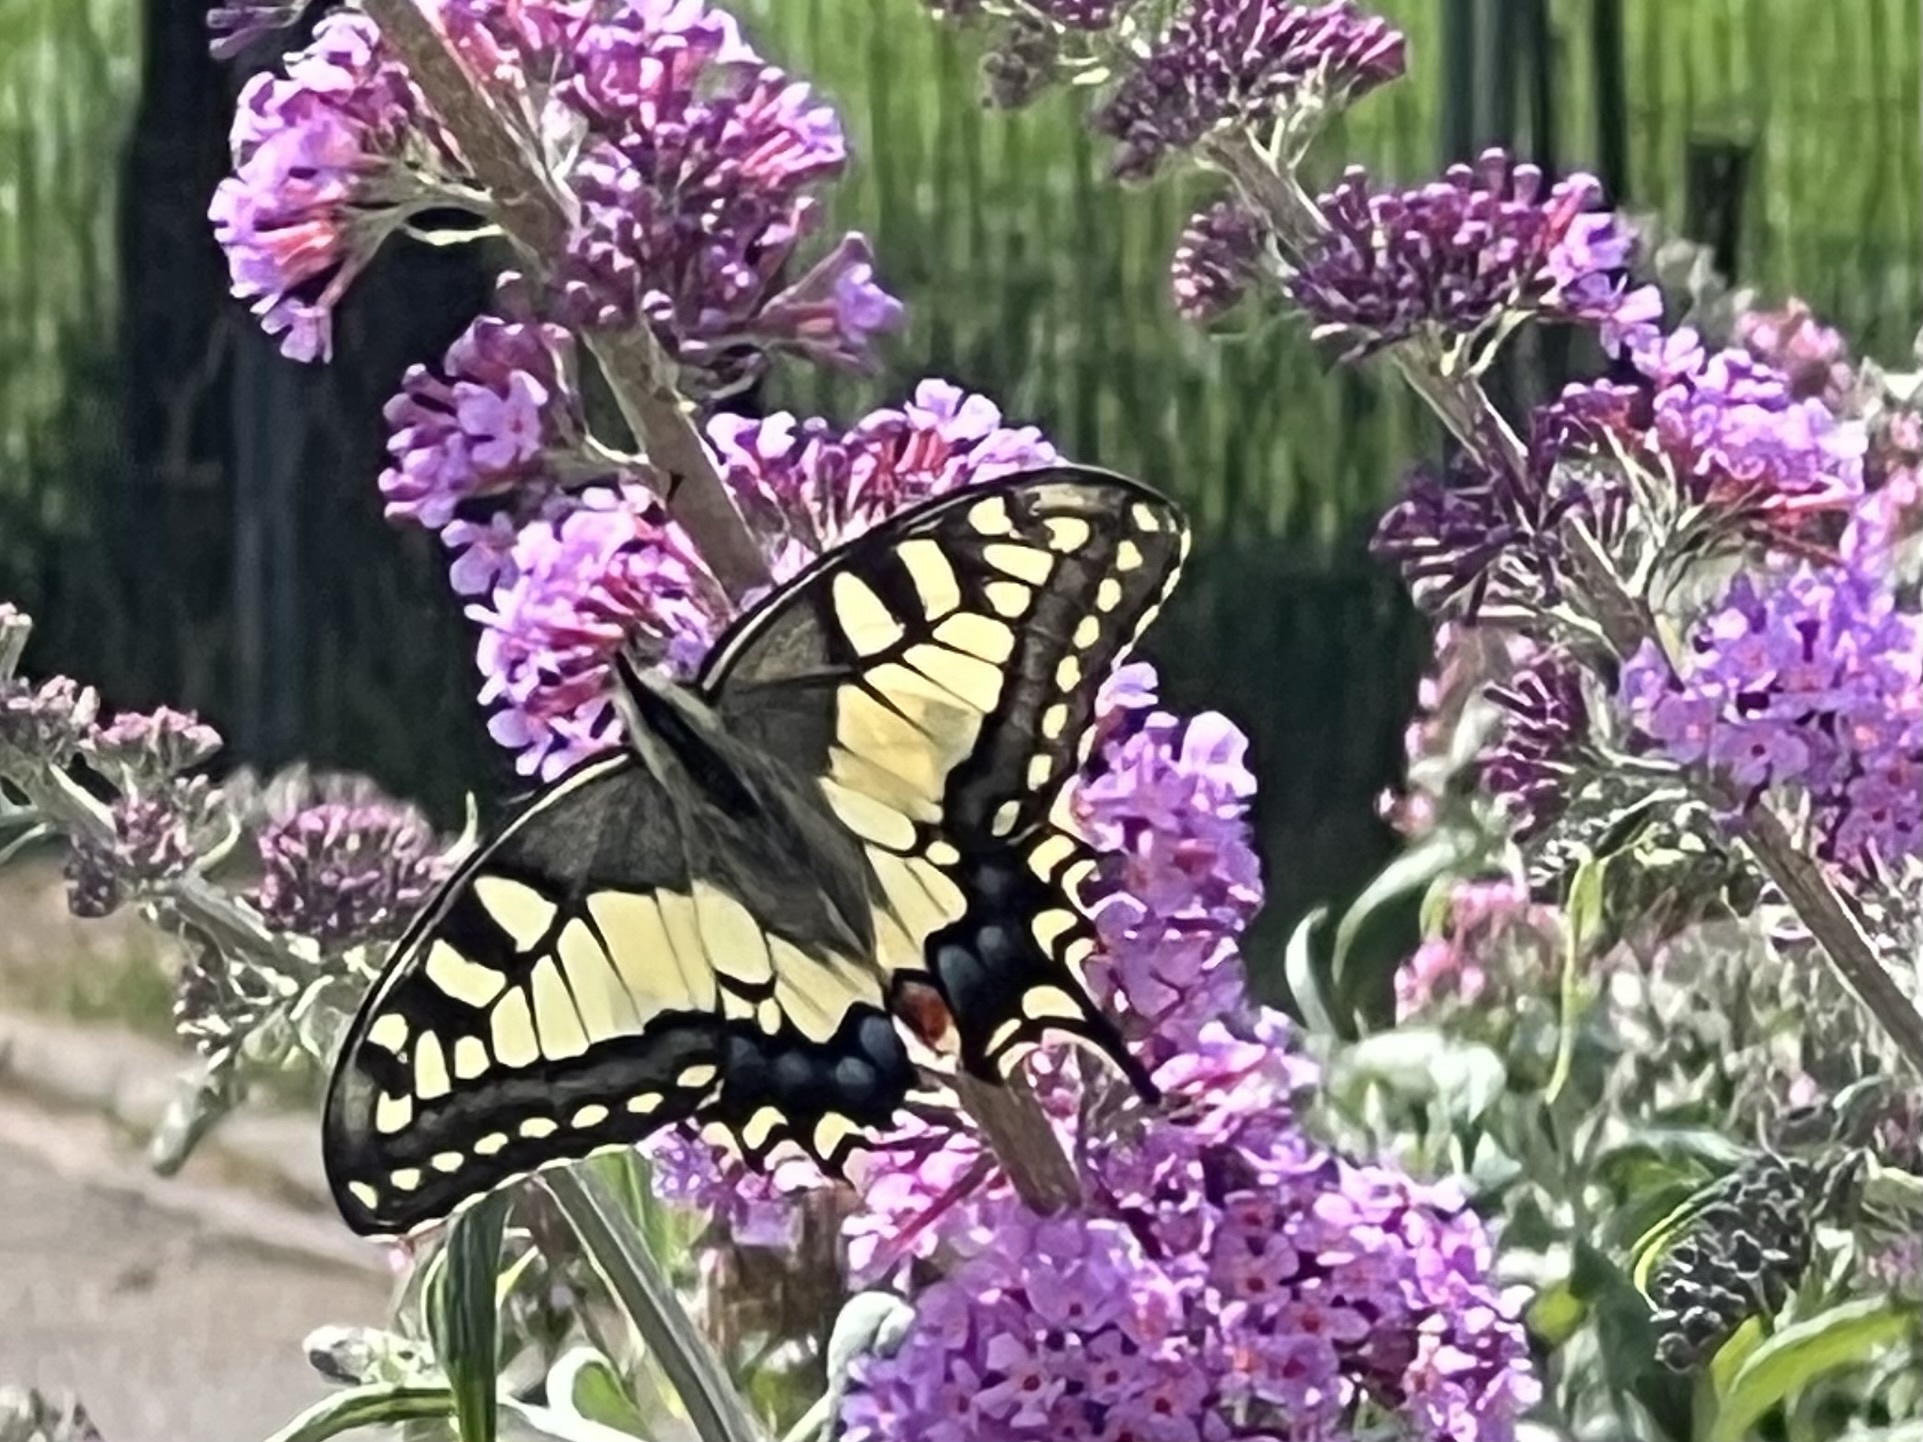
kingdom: Animalia
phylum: Arthropoda
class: Insecta
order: Lepidoptera
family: Papilionidae
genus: Papilio
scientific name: Papilio machaon
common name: Swallowtail
